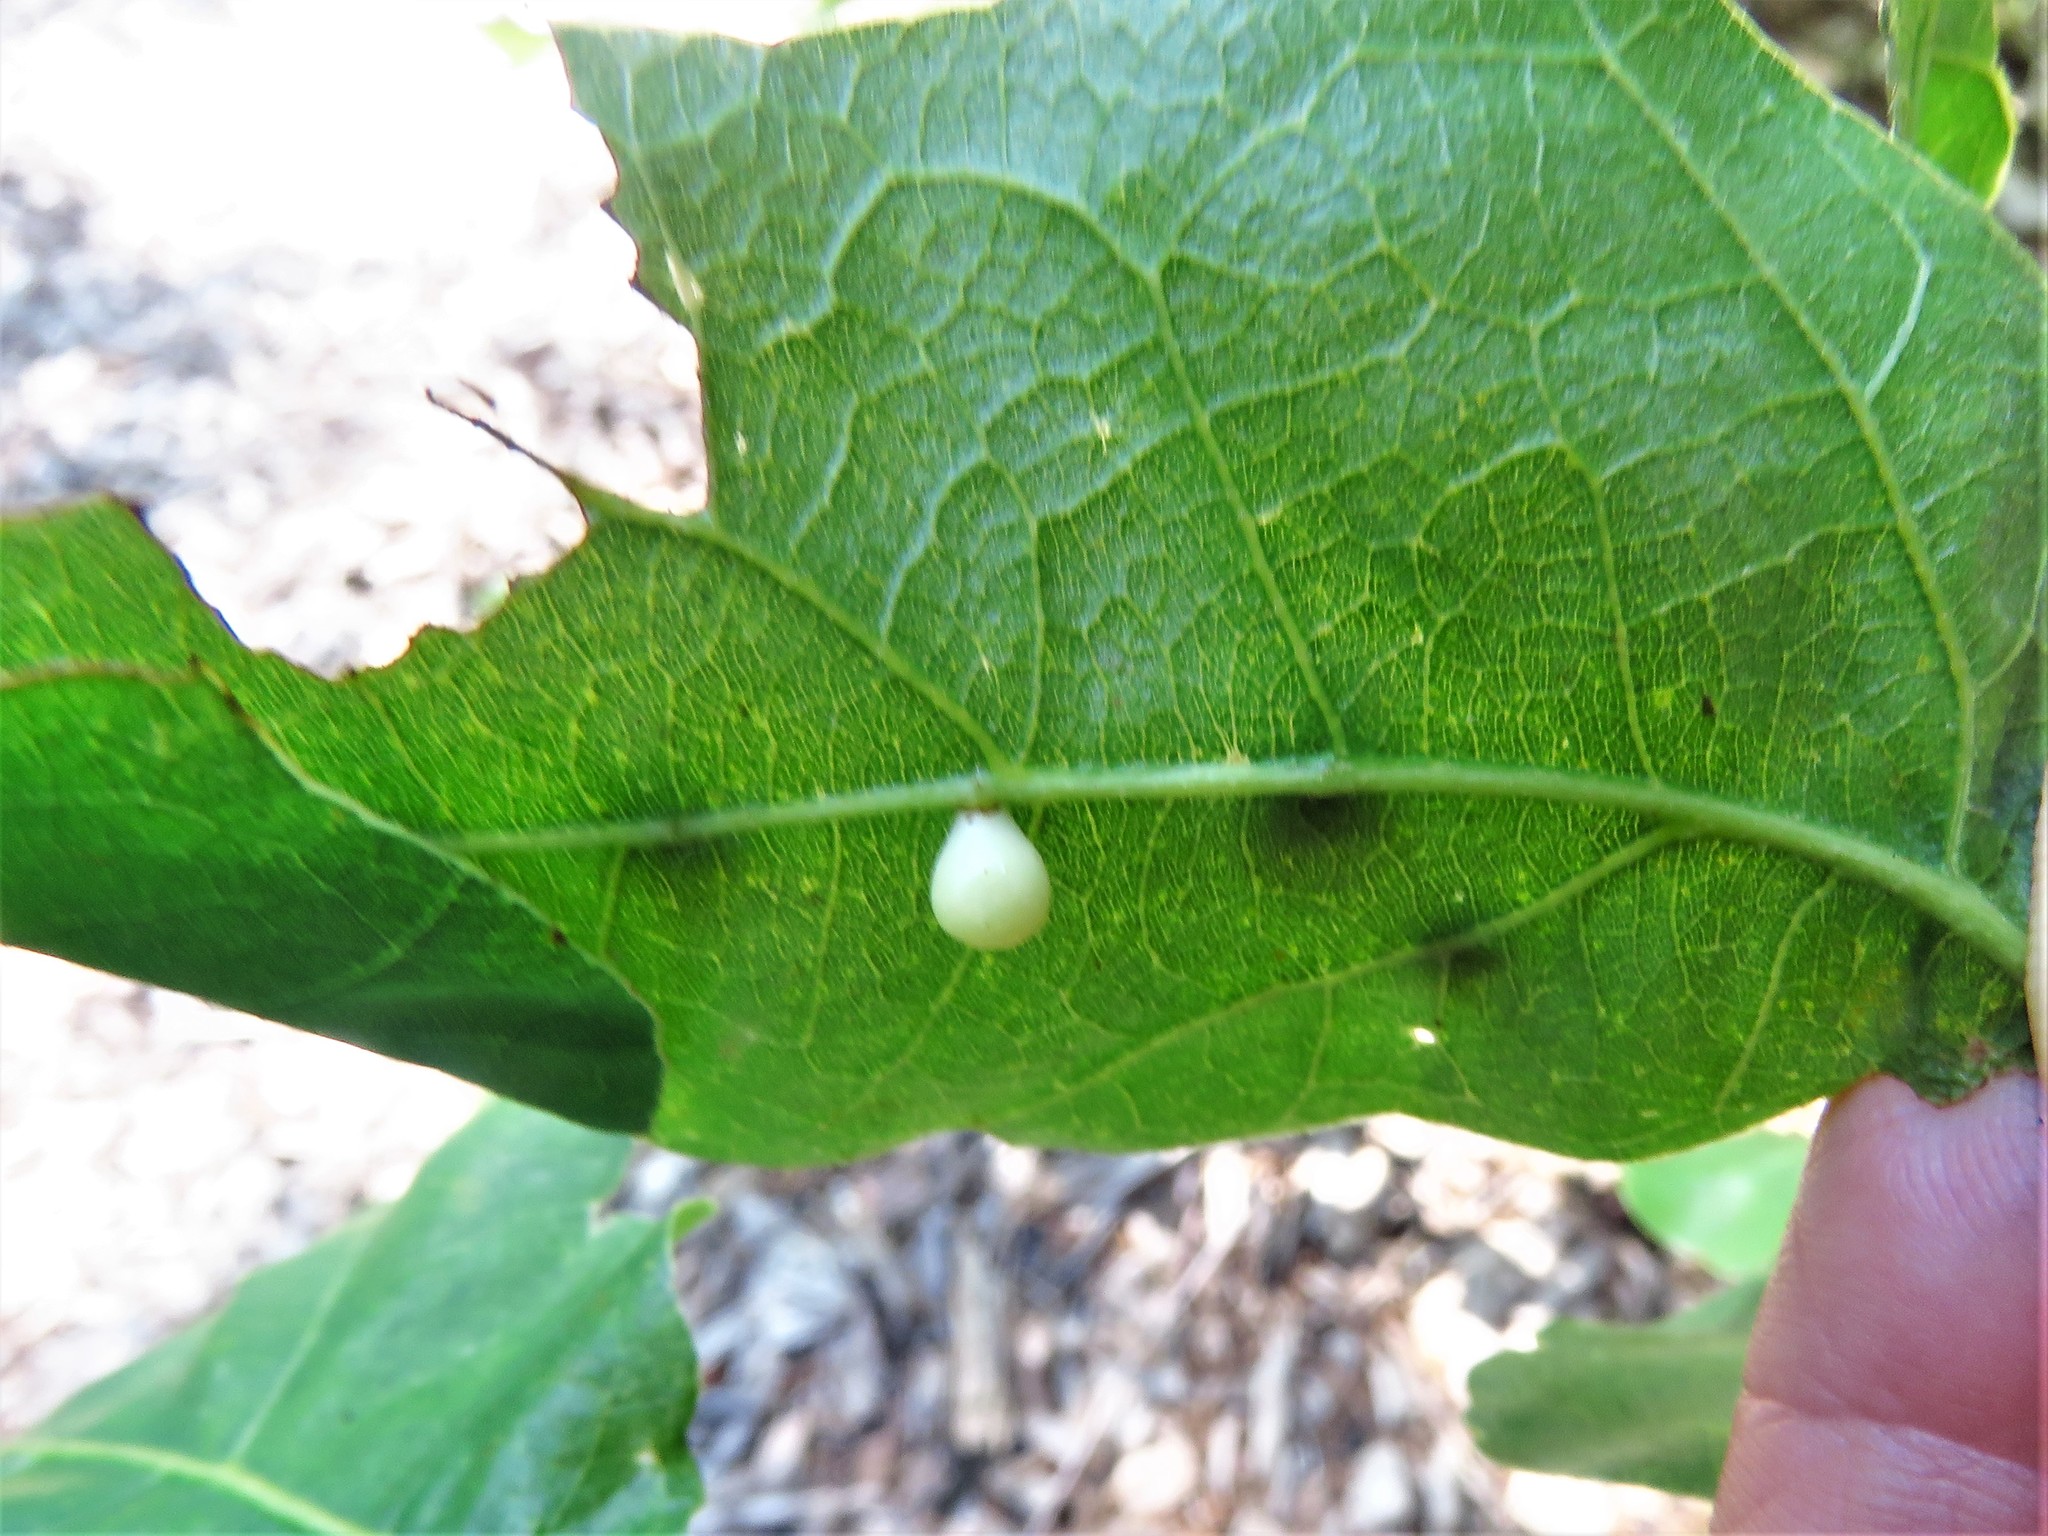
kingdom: Animalia
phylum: Arthropoda
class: Insecta
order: Hymenoptera
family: Cynipidae
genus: Trigonaspis
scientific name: Trigonaspis
